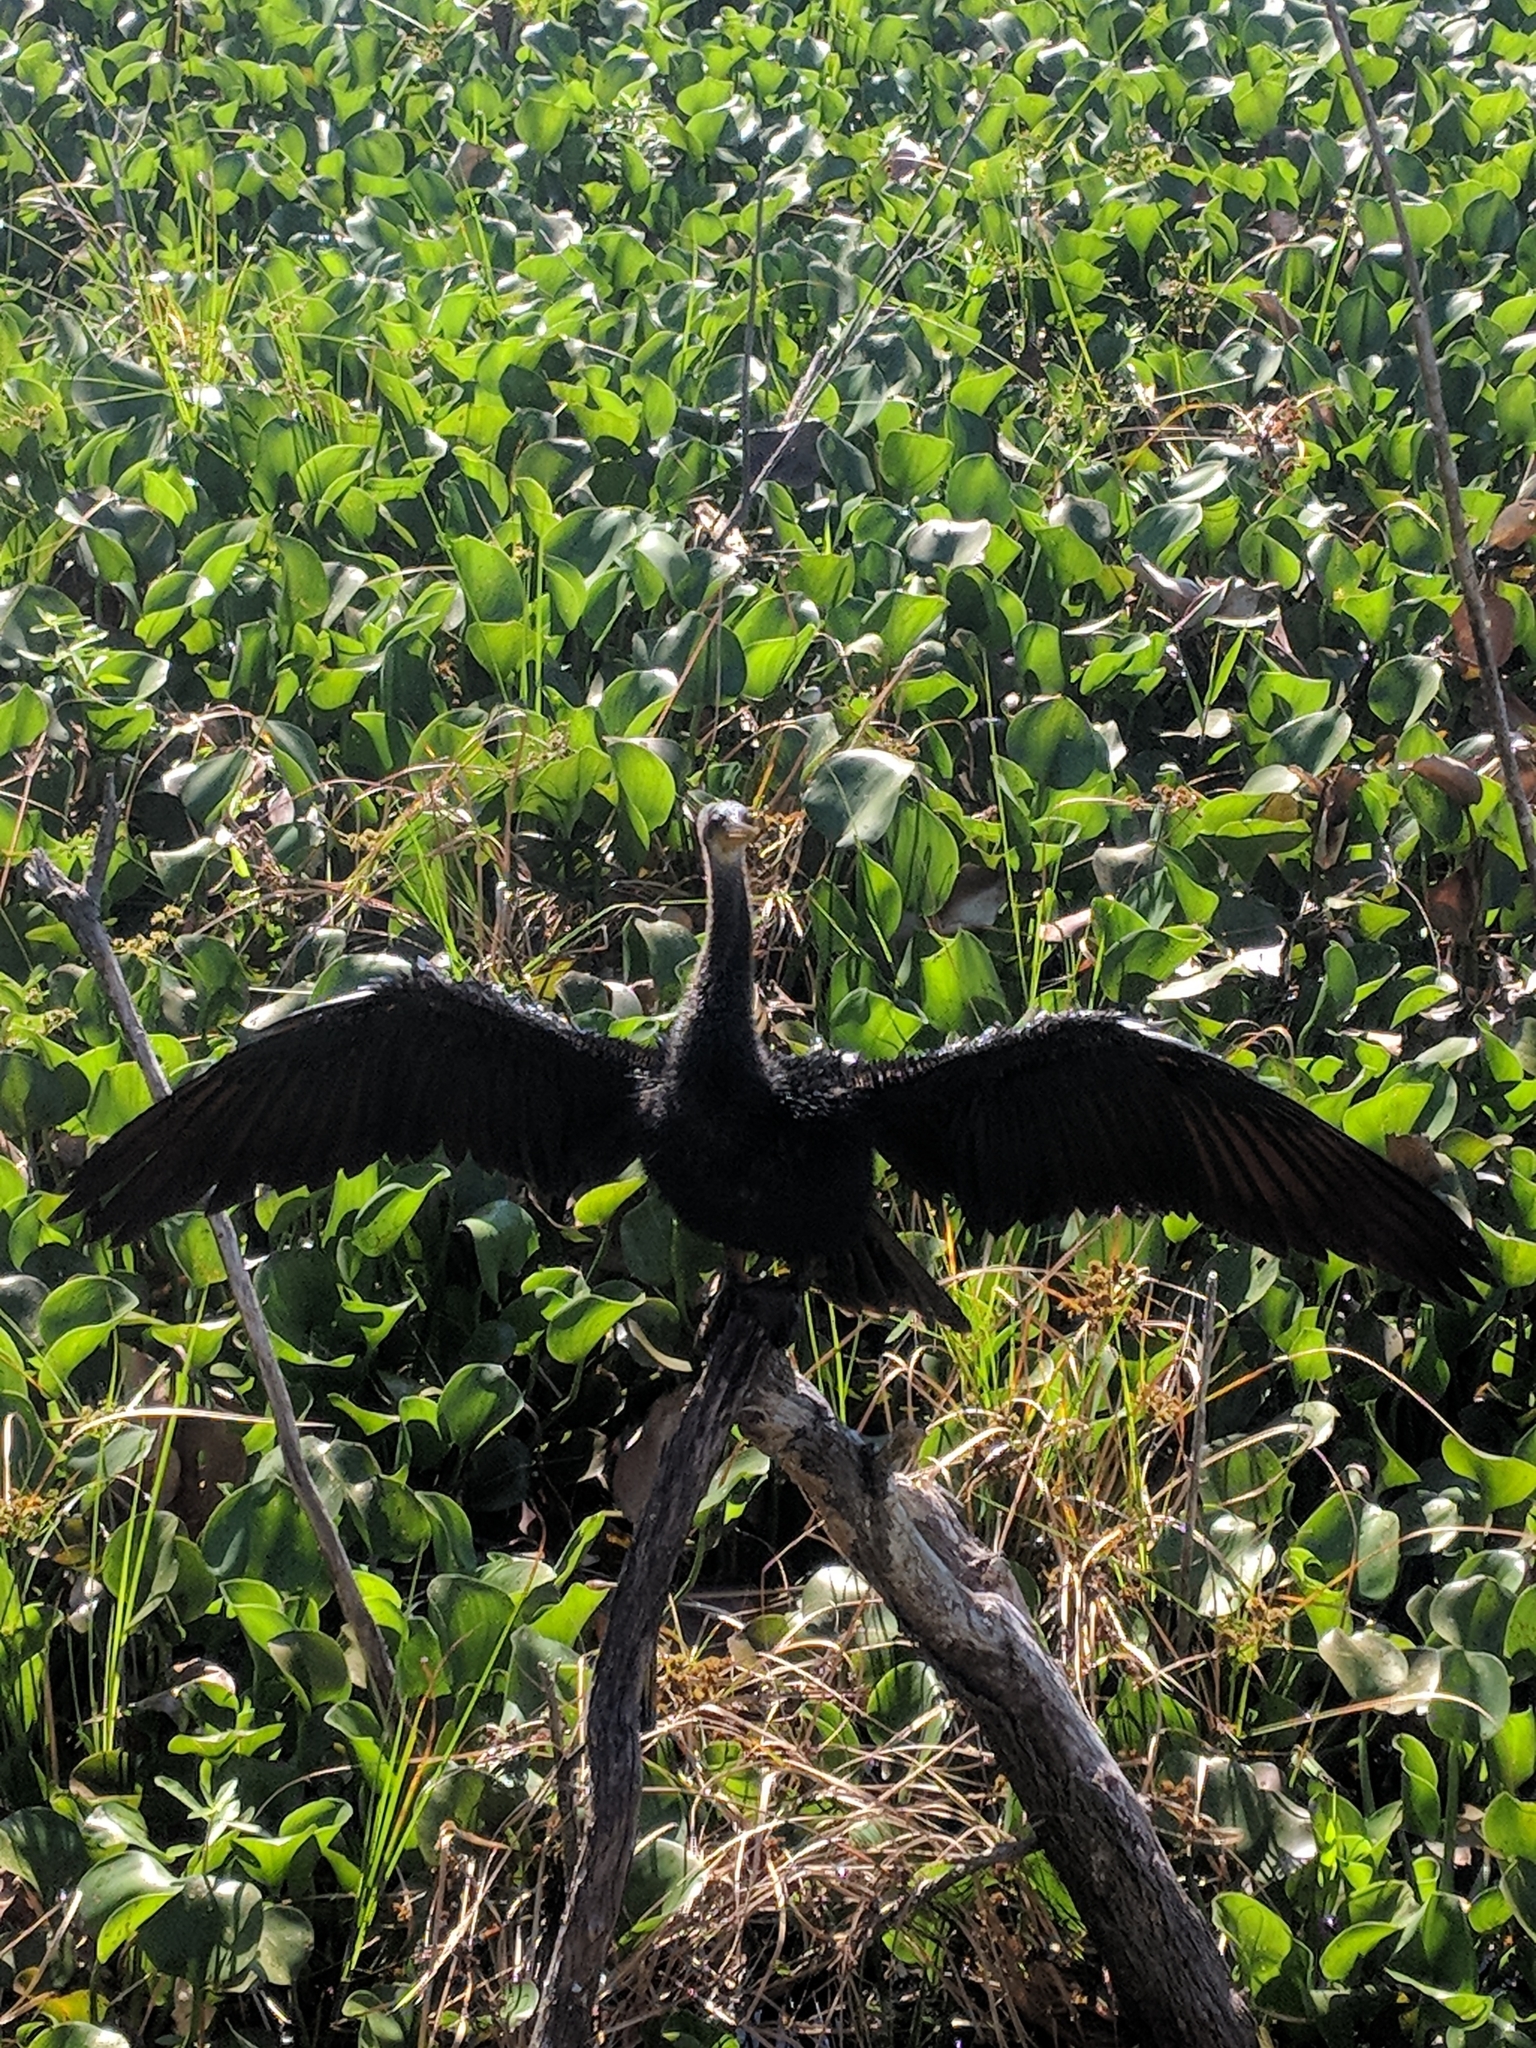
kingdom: Animalia
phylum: Chordata
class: Aves
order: Suliformes
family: Anhingidae
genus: Anhinga
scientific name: Anhinga anhinga
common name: Anhinga
